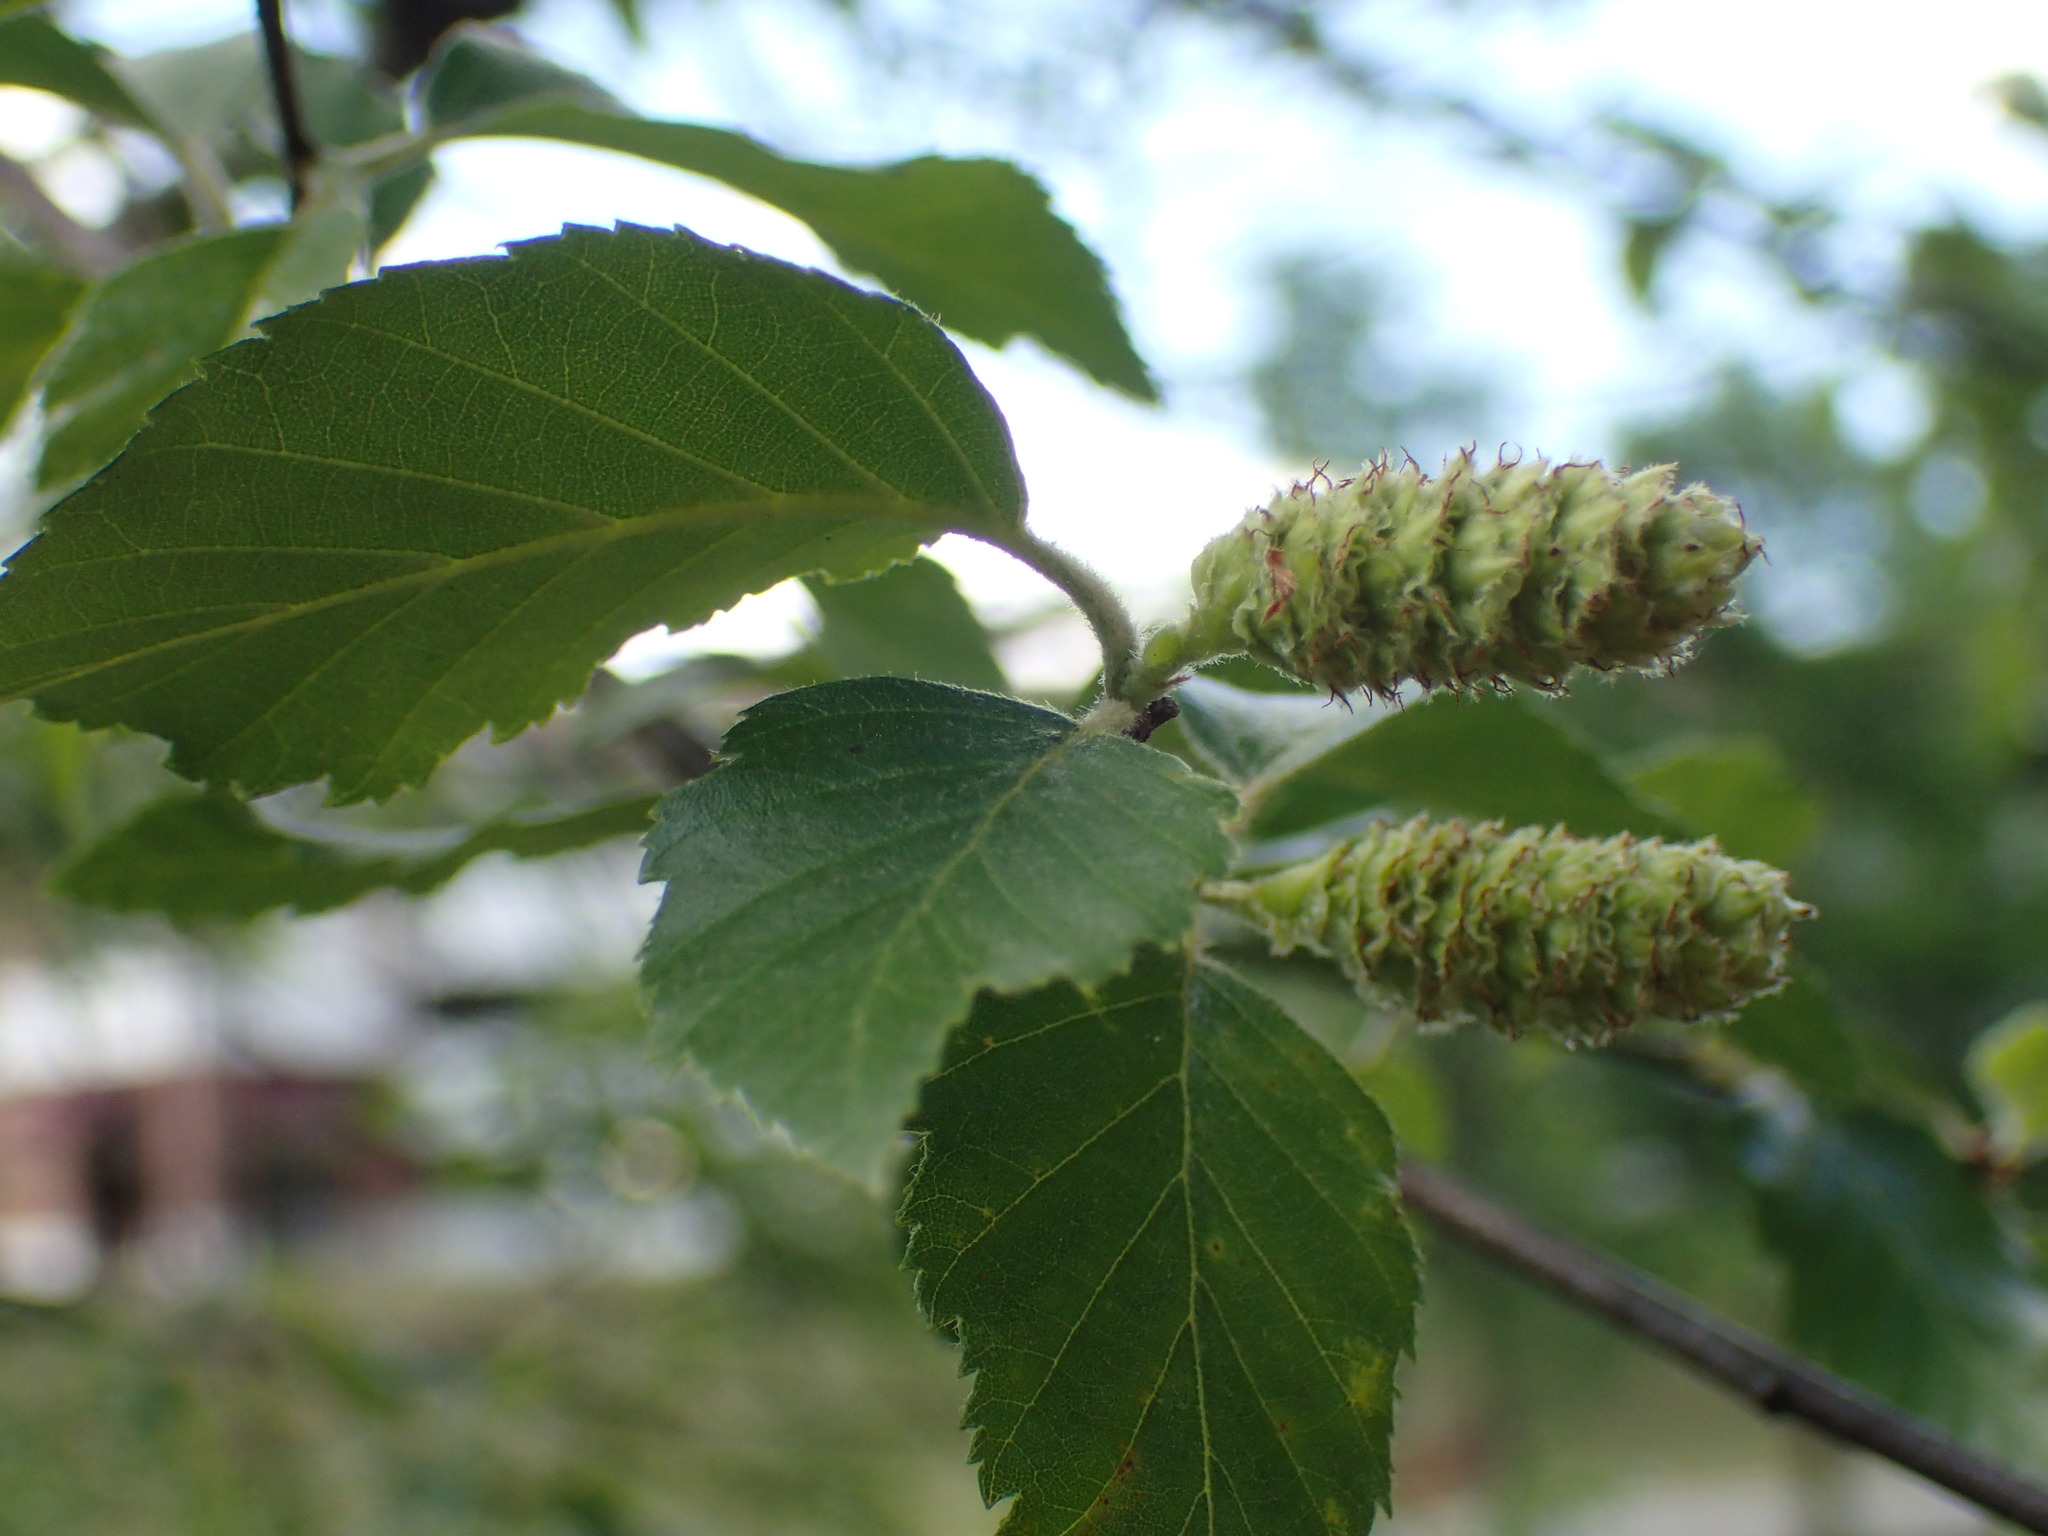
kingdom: Plantae
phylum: Tracheophyta
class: Magnoliopsida
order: Fagales
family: Betulaceae
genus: Betula
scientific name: Betula nigra
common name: Black birch
